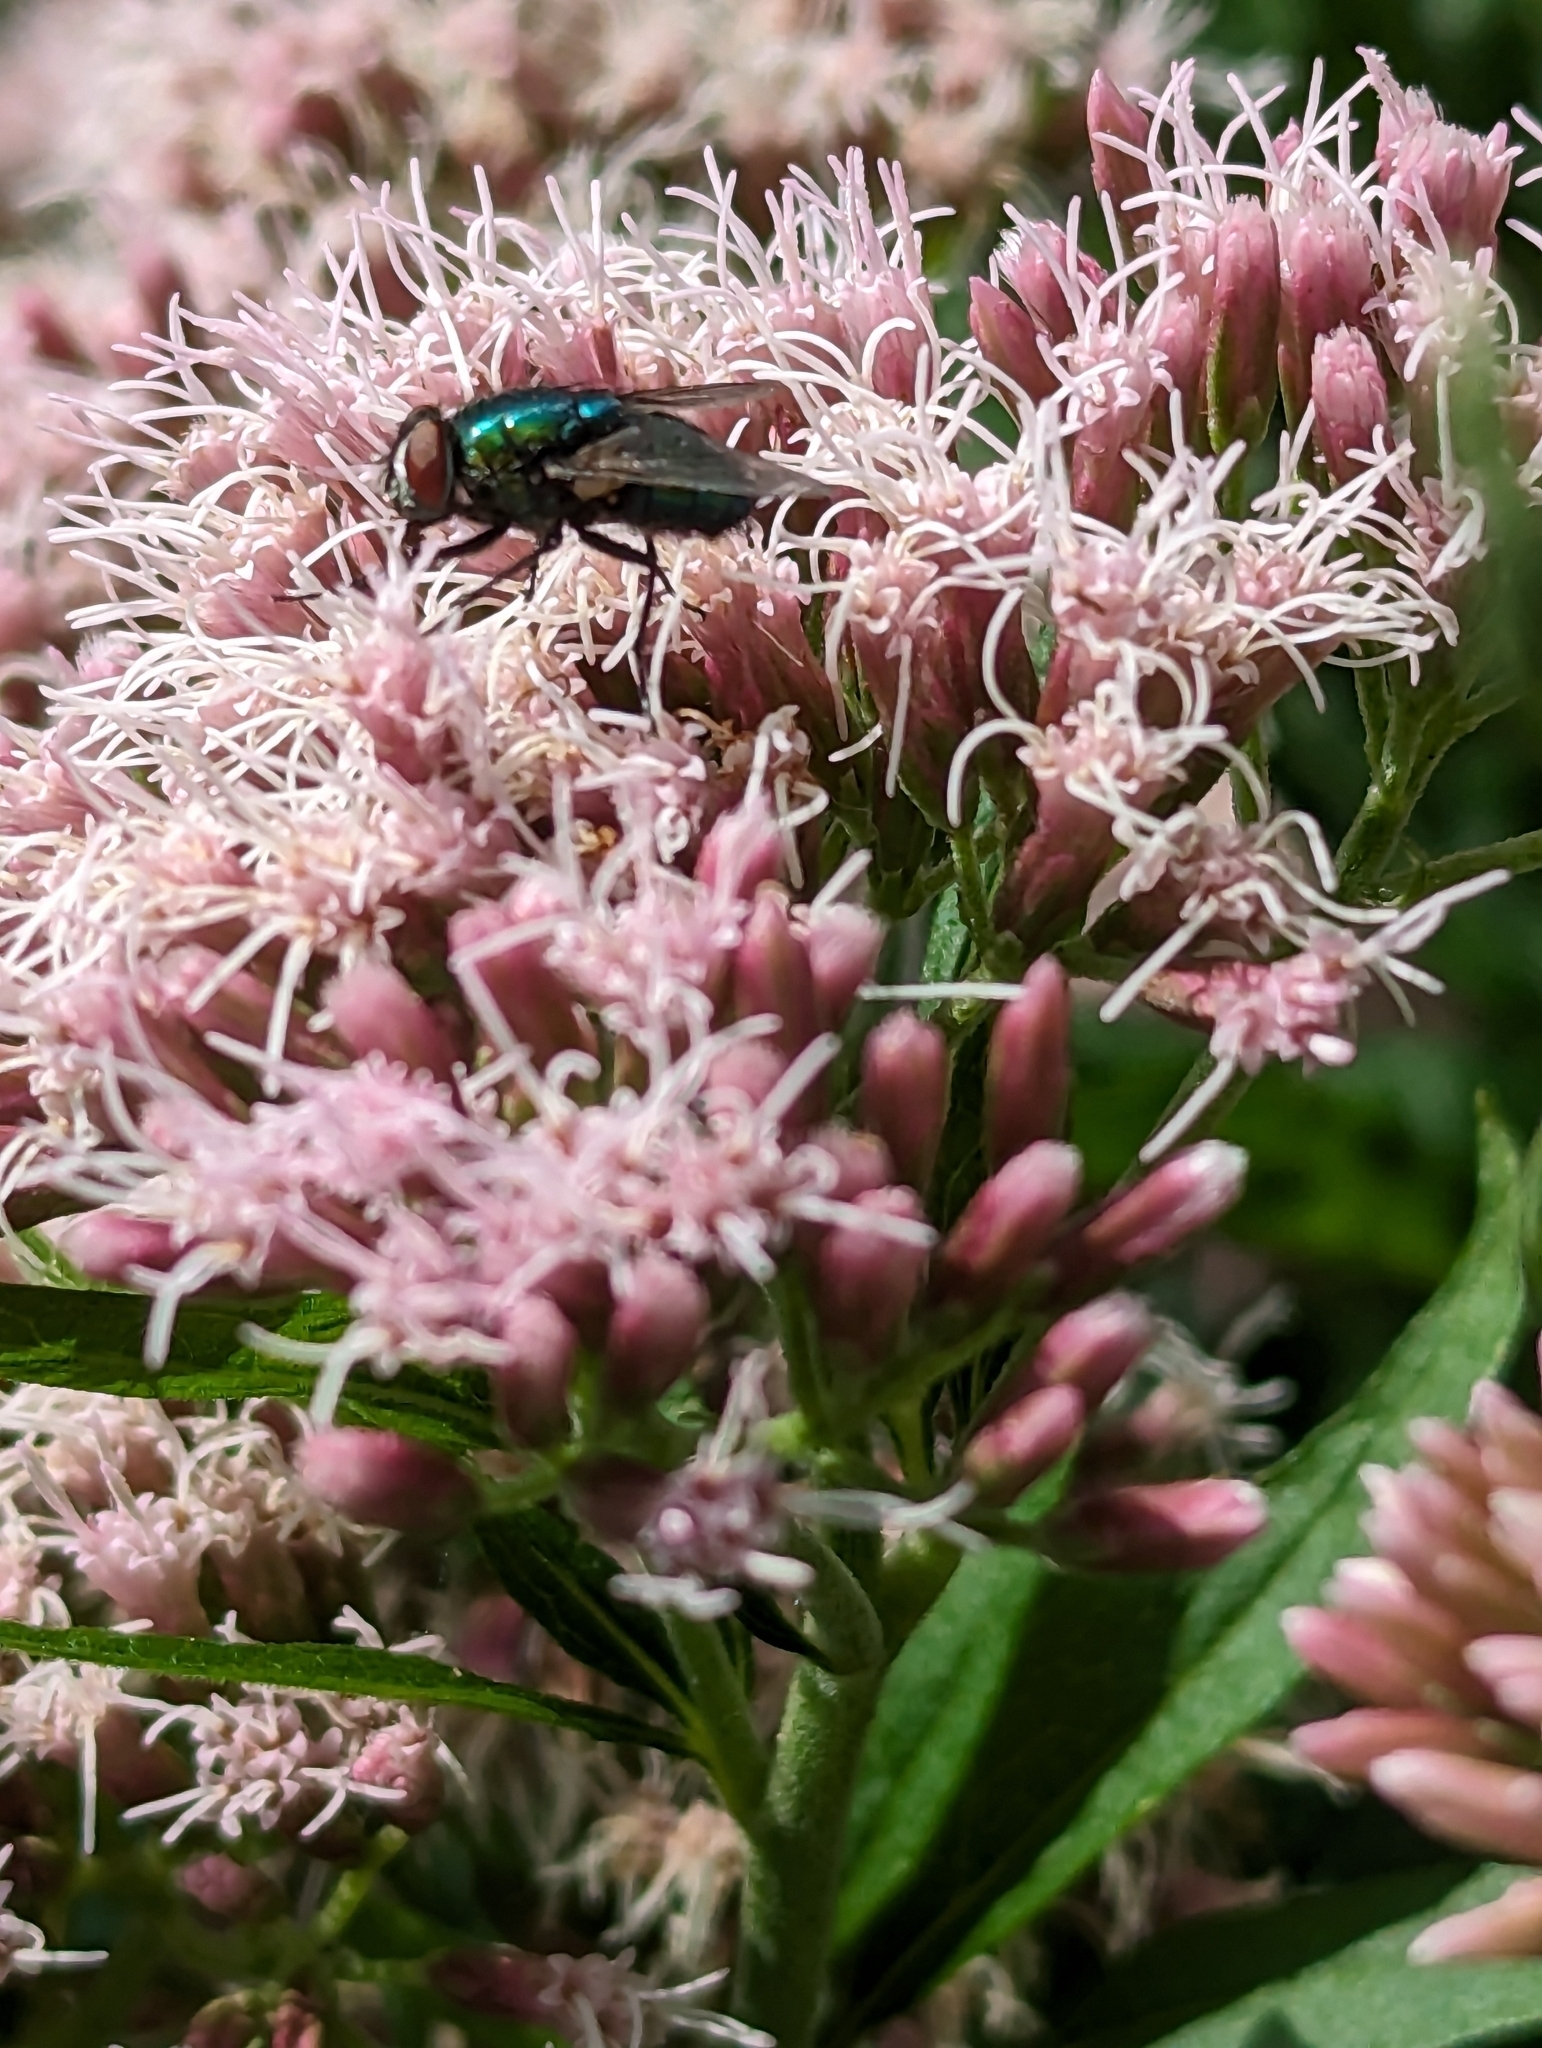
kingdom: Animalia
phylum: Arthropoda
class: Insecta
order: Diptera
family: Calliphoridae
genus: Lucilia
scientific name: Lucilia
